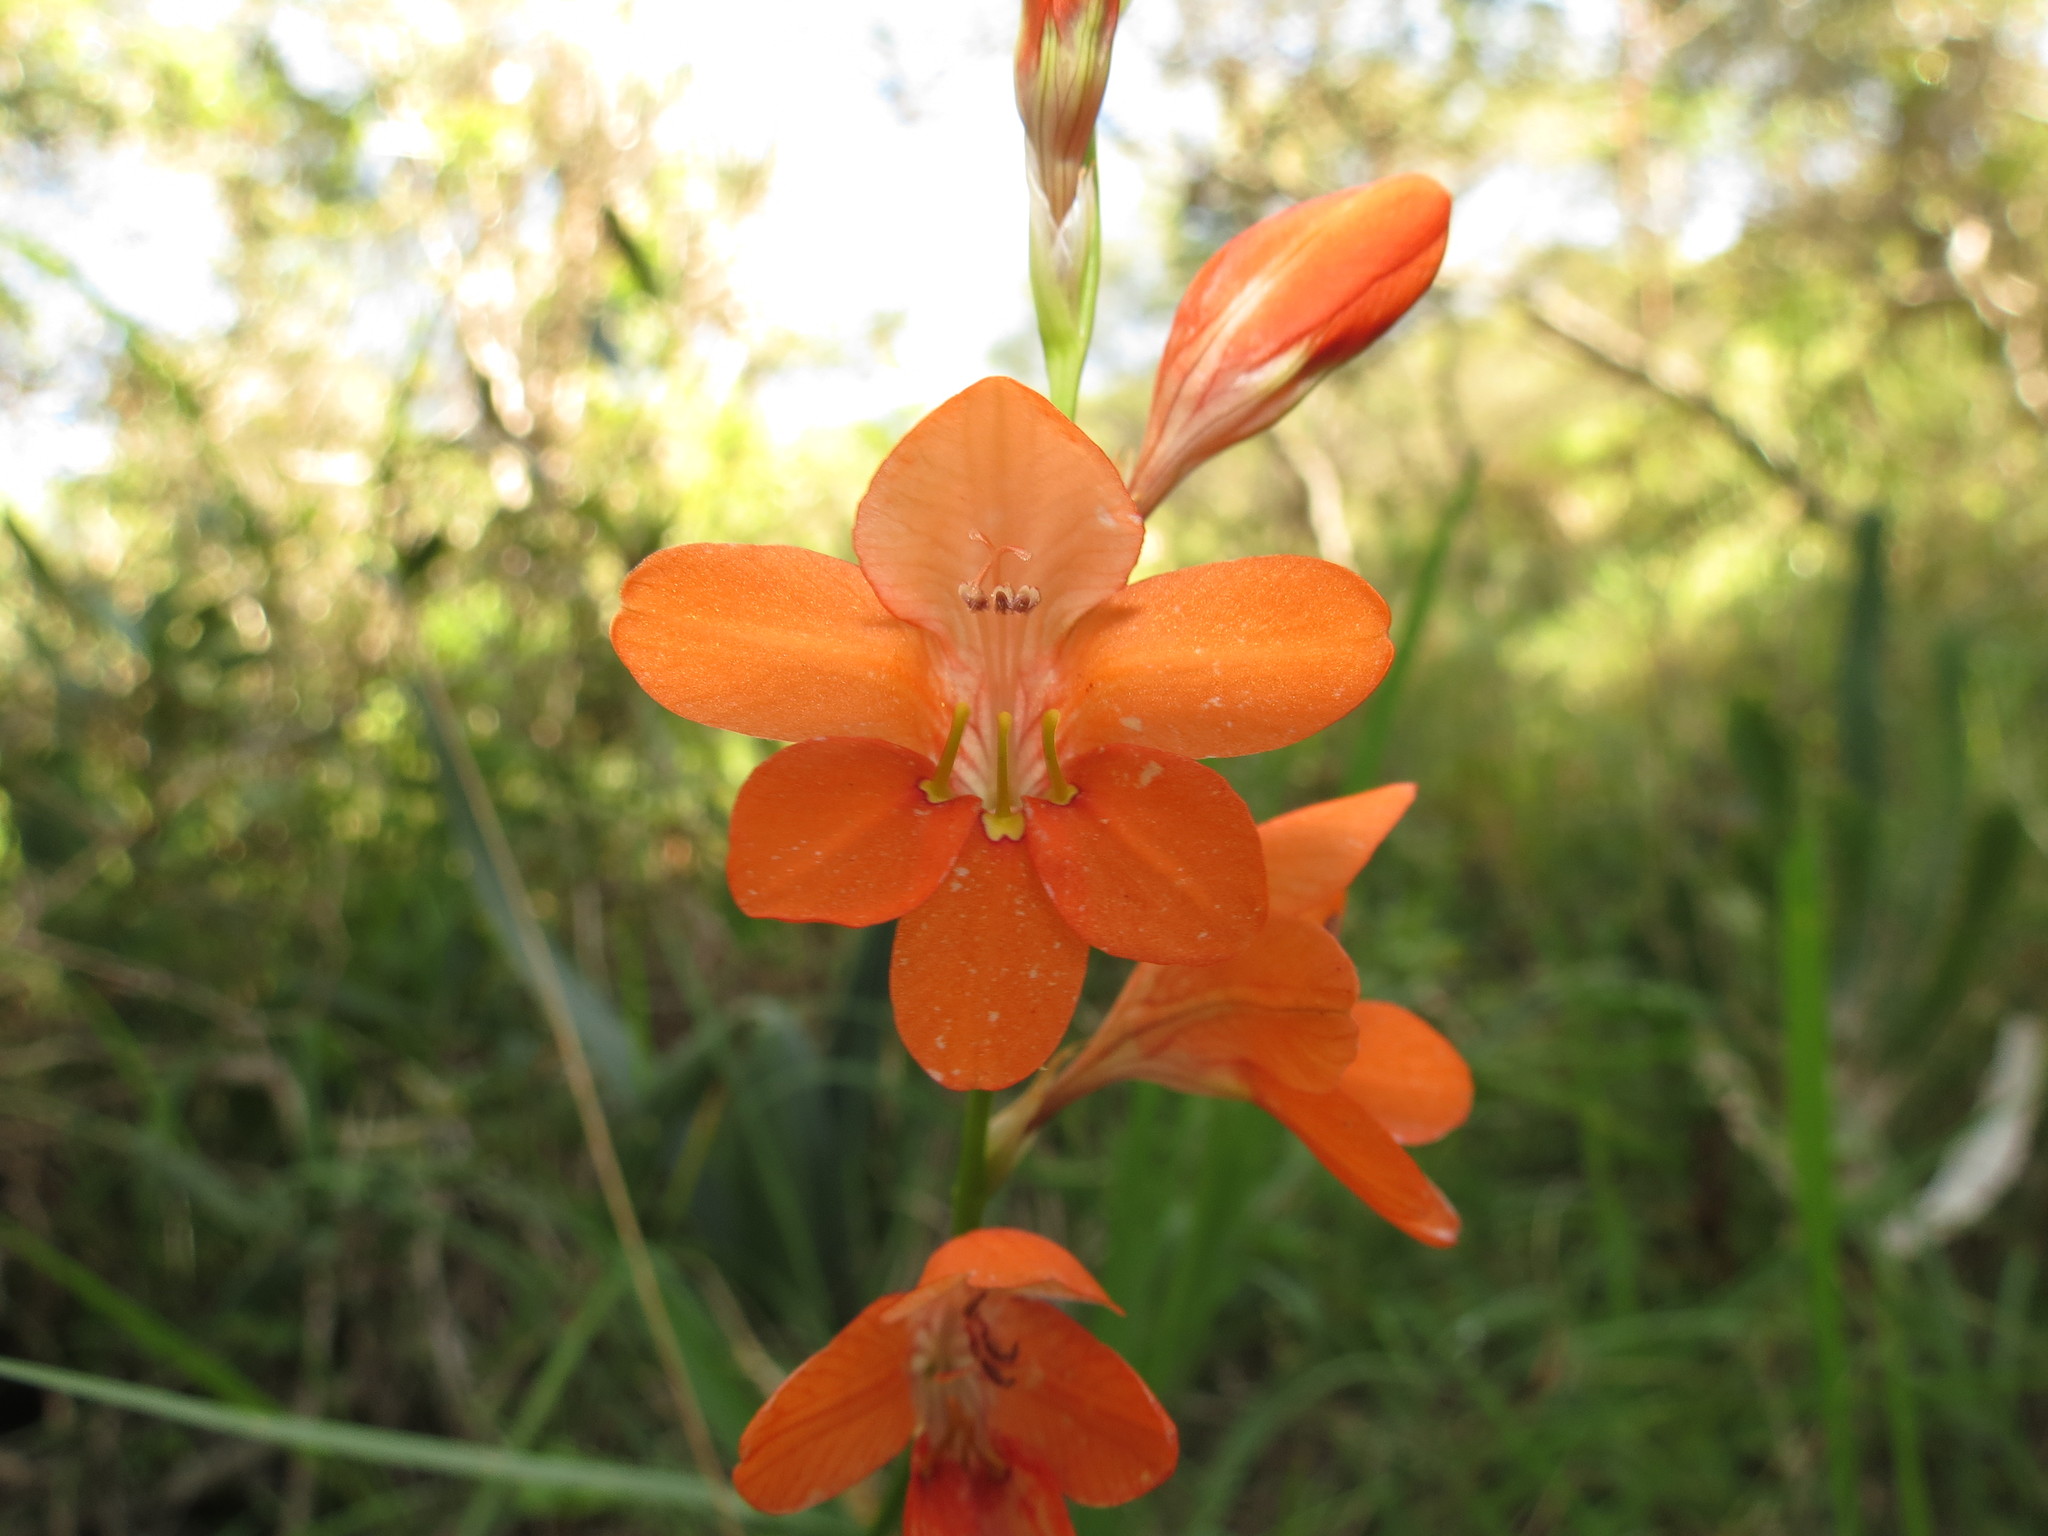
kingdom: Plantae
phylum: Tracheophyta
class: Liliopsida
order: Asparagales
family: Iridaceae
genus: Tritonia
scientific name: Tritonia laxifolia
